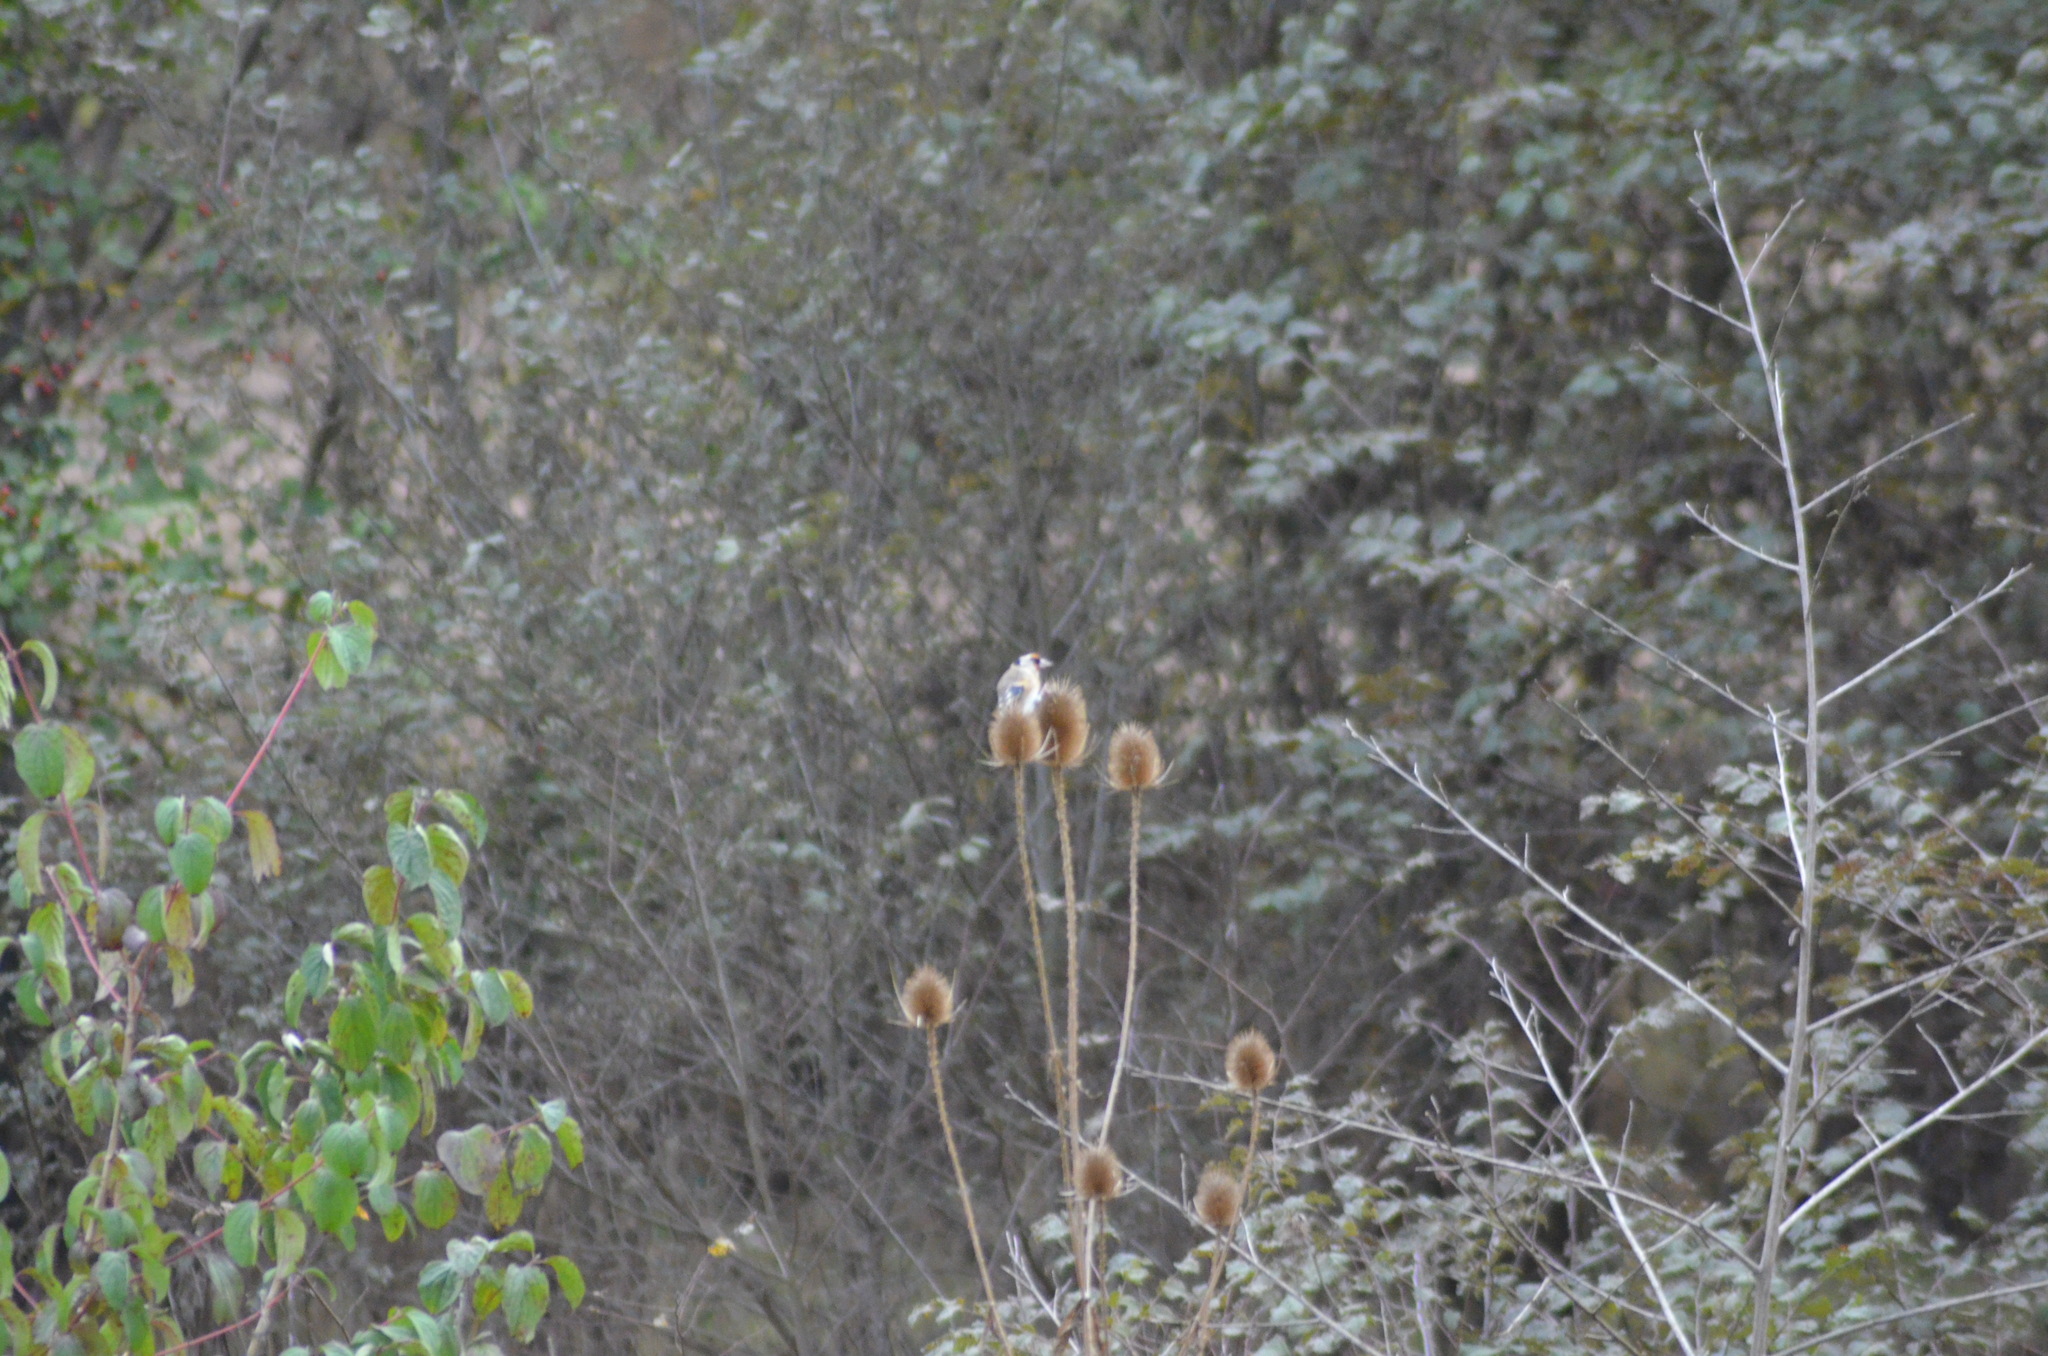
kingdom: Animalia
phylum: Chordata
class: Aves
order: Passeriformes
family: Fringillidae
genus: Carduelis
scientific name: Carduelis carduelis
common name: European goldfinch
